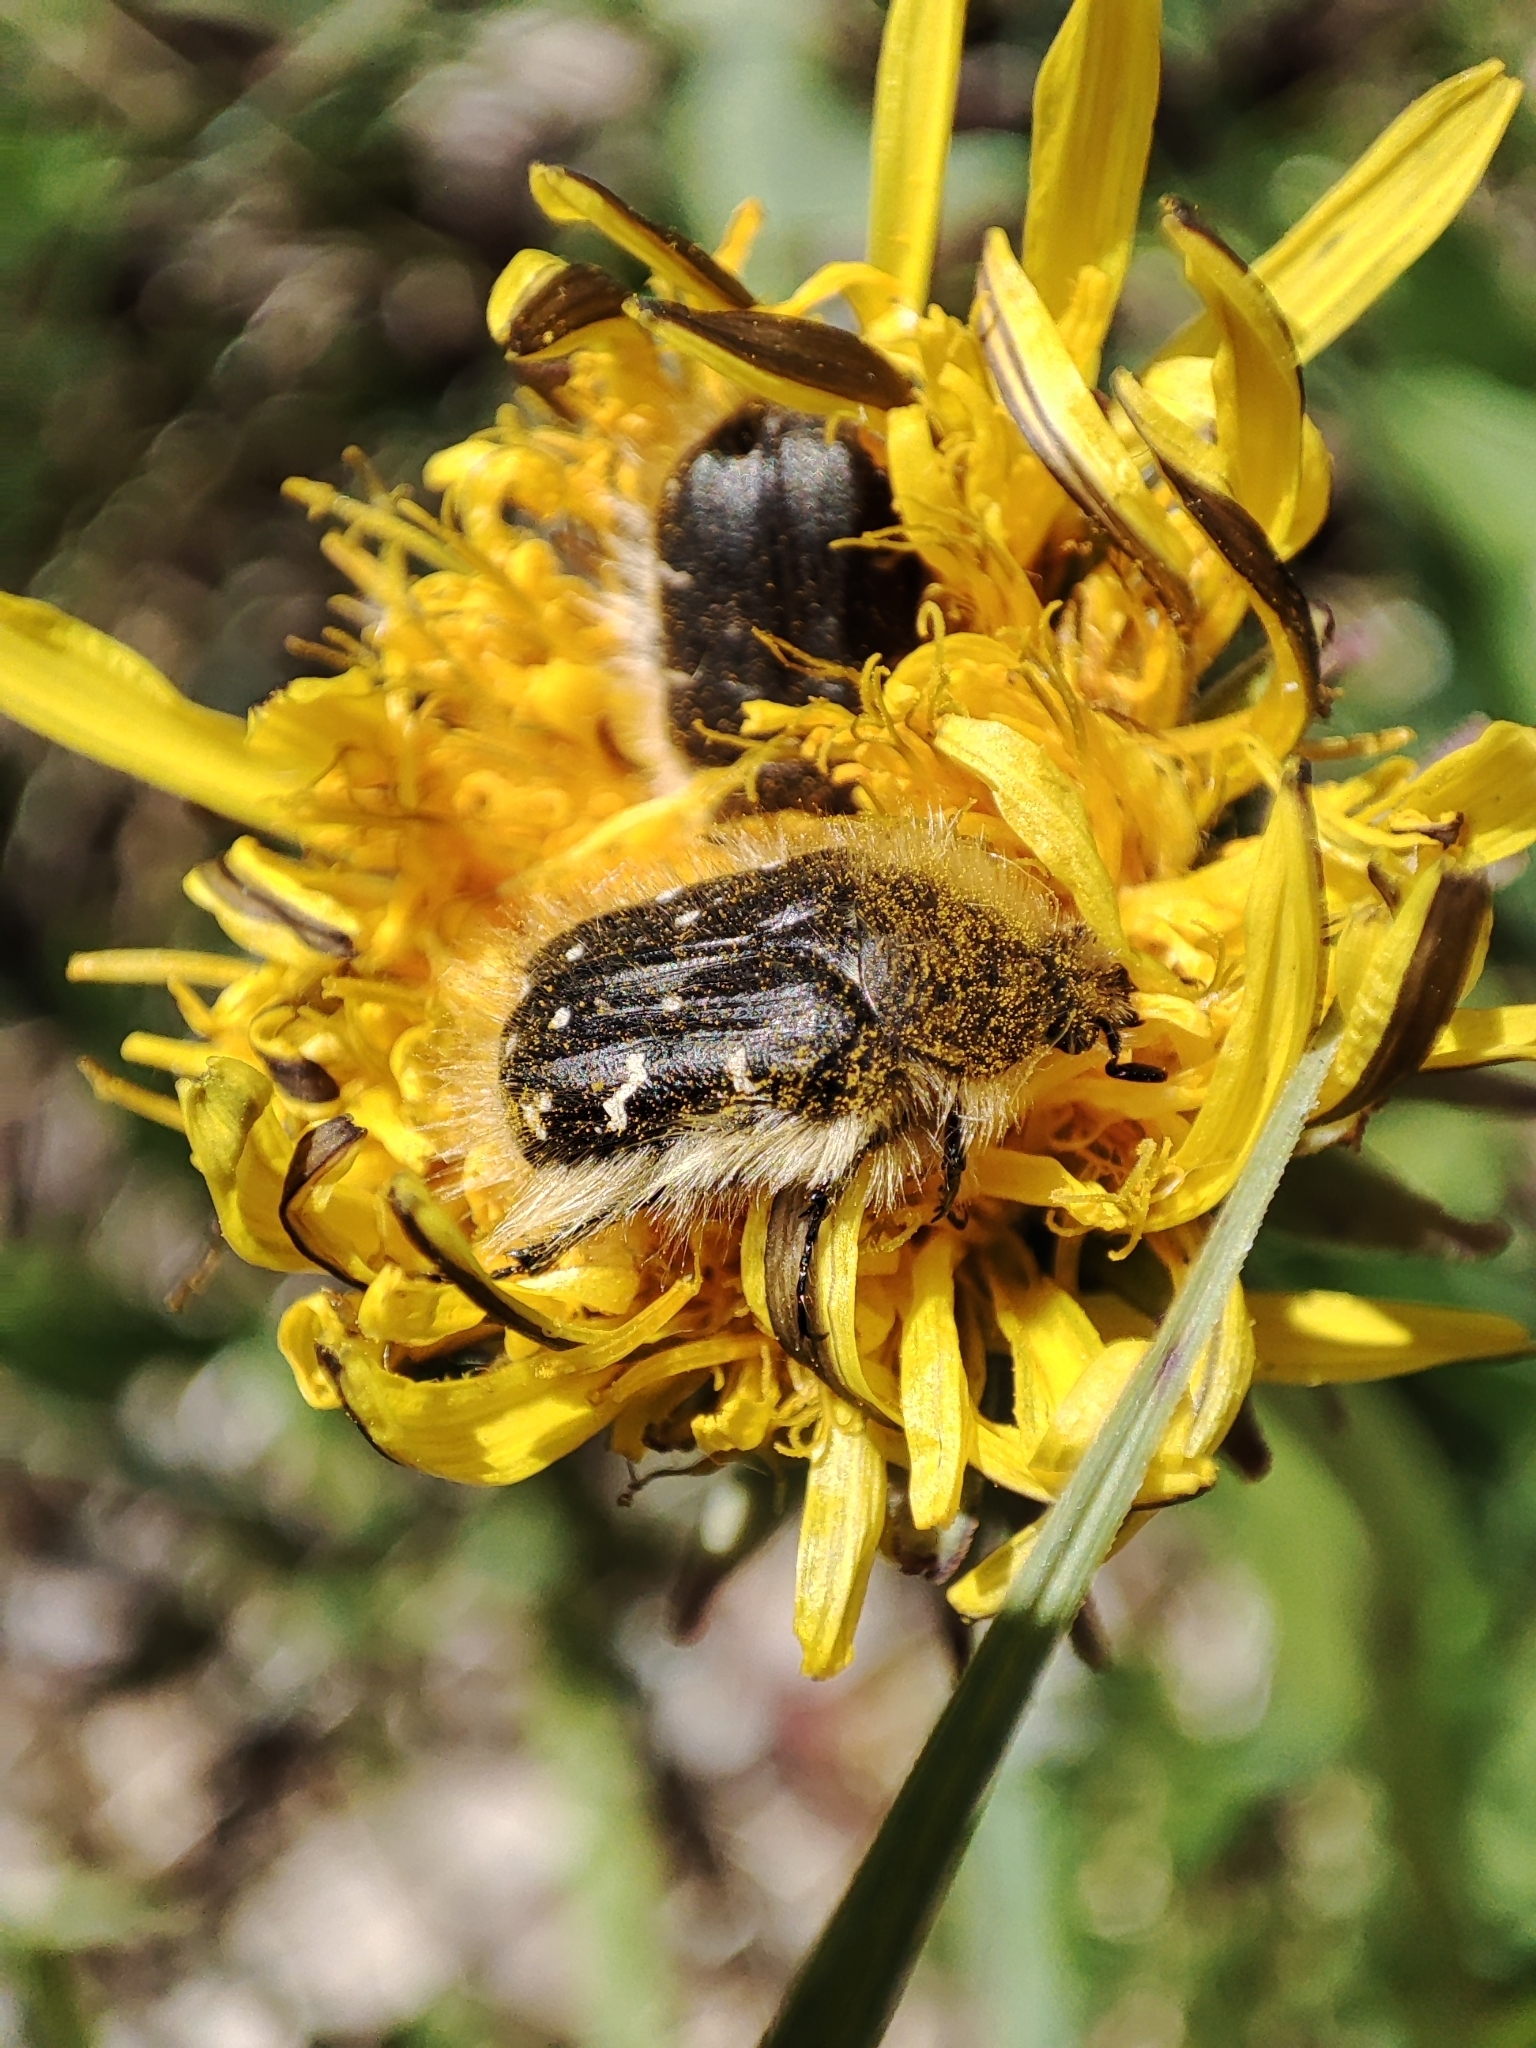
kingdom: Animalia
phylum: Arthropoda
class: Insecta
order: Coleoptera
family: Scarabaeidae
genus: Tropinota
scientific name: Tropinota hirta
